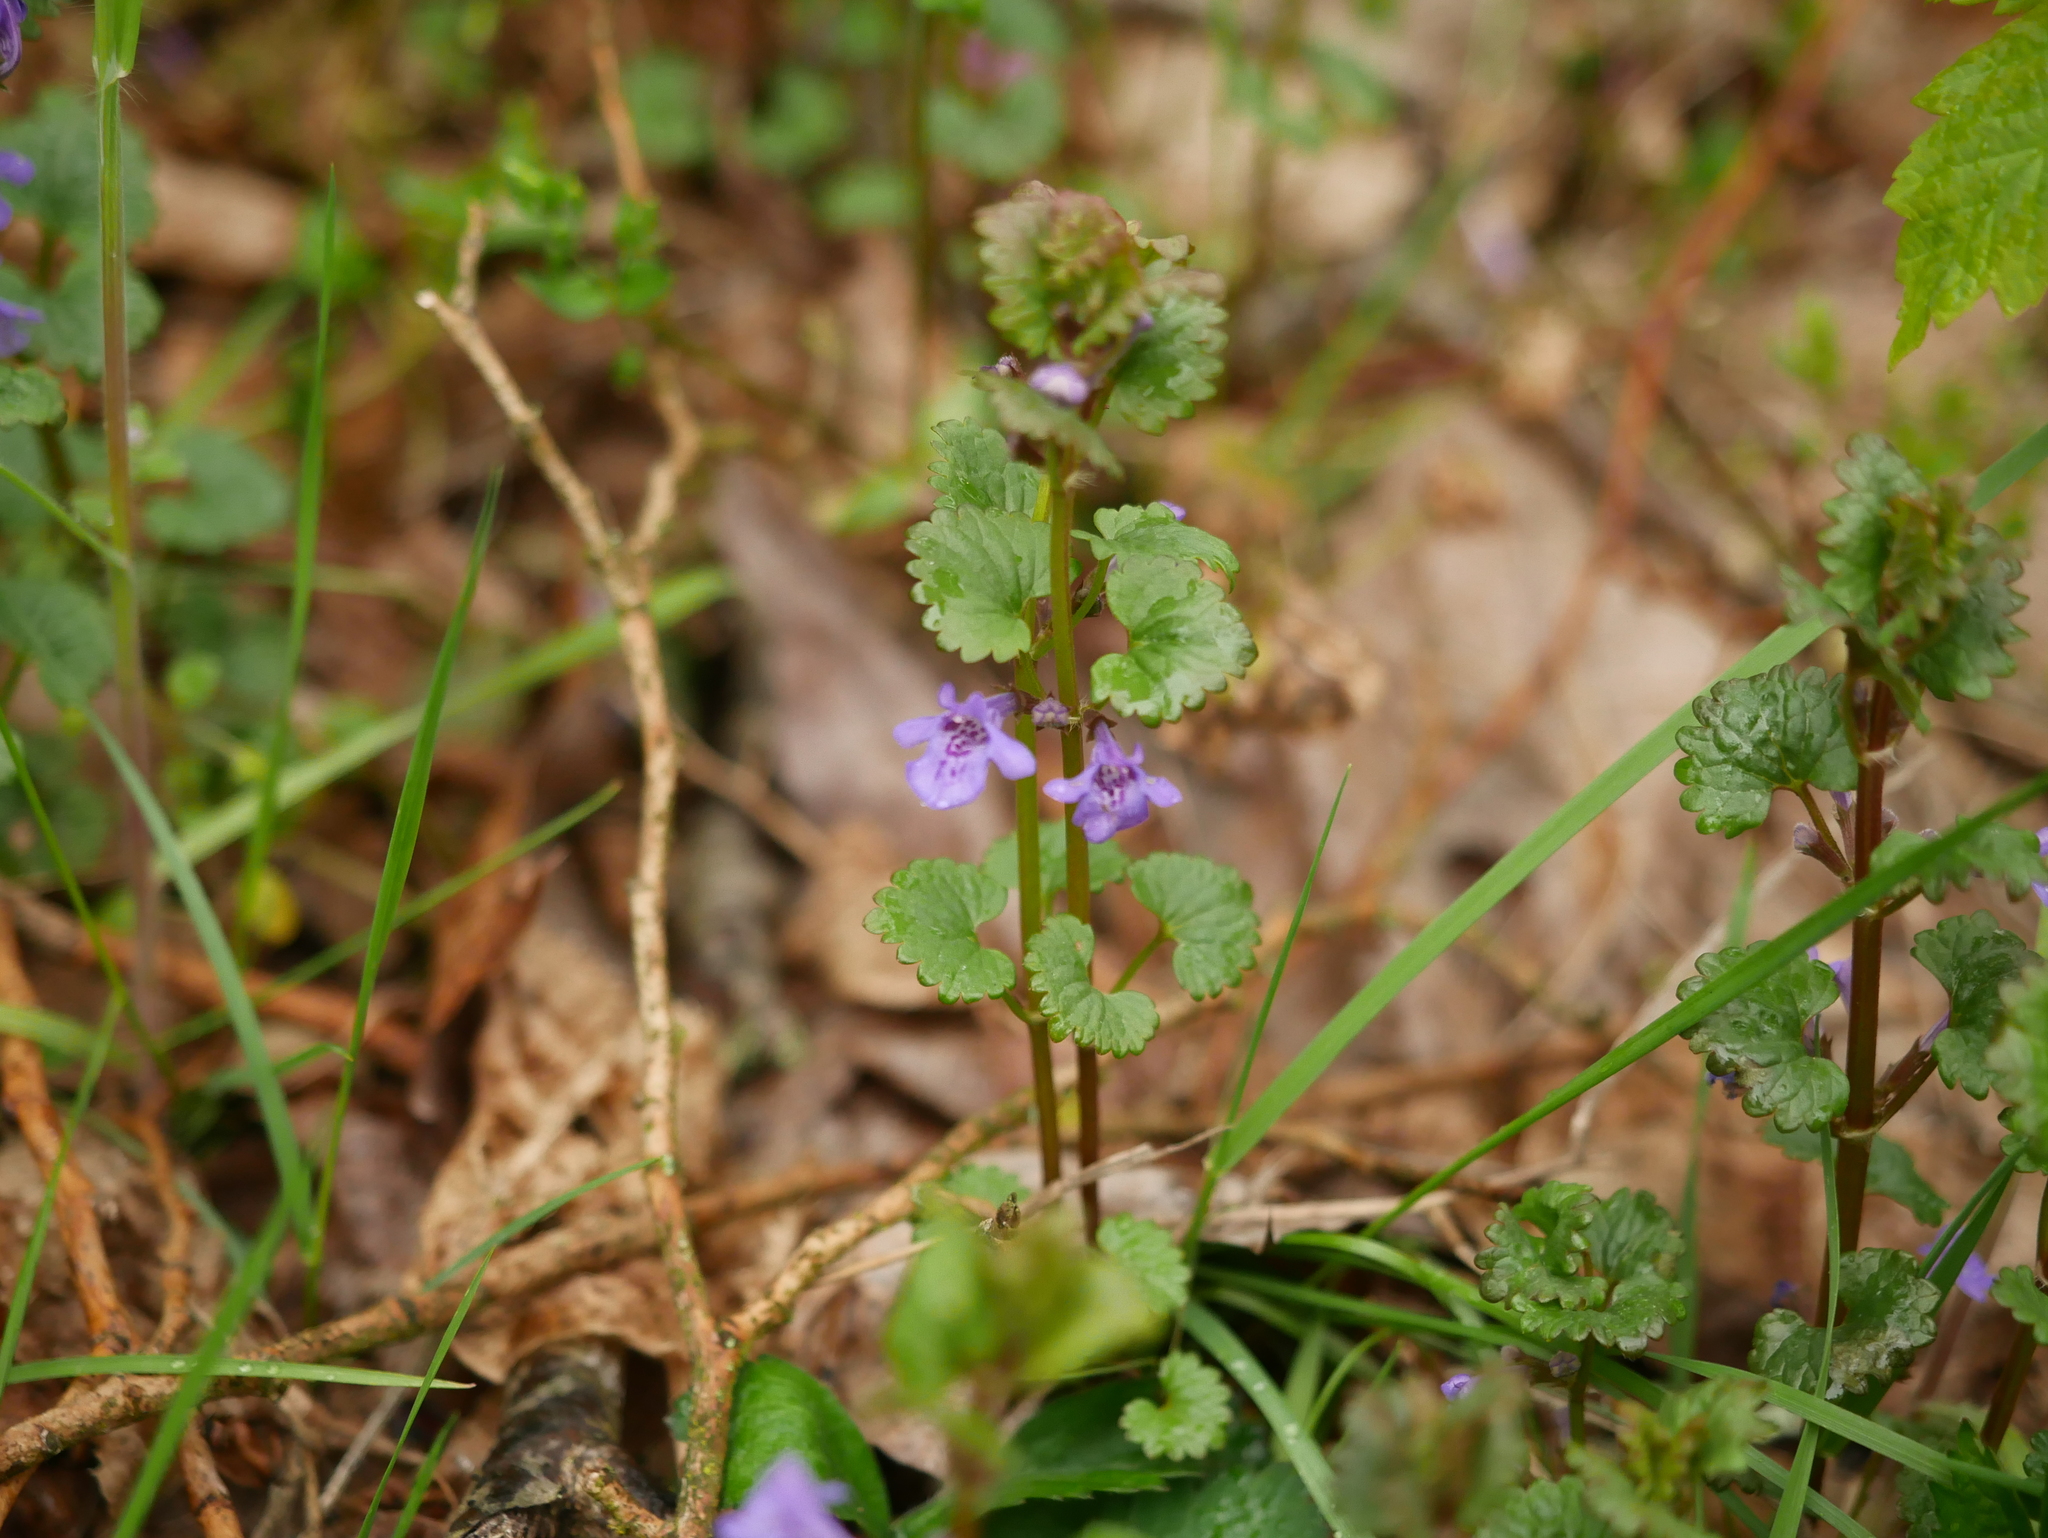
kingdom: Plantae
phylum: Tracheophyta
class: Magnoliopsida
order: Lamiales
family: Lamiaceae
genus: Glechoma
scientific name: Glechoma hederacea
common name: Ground ivy
